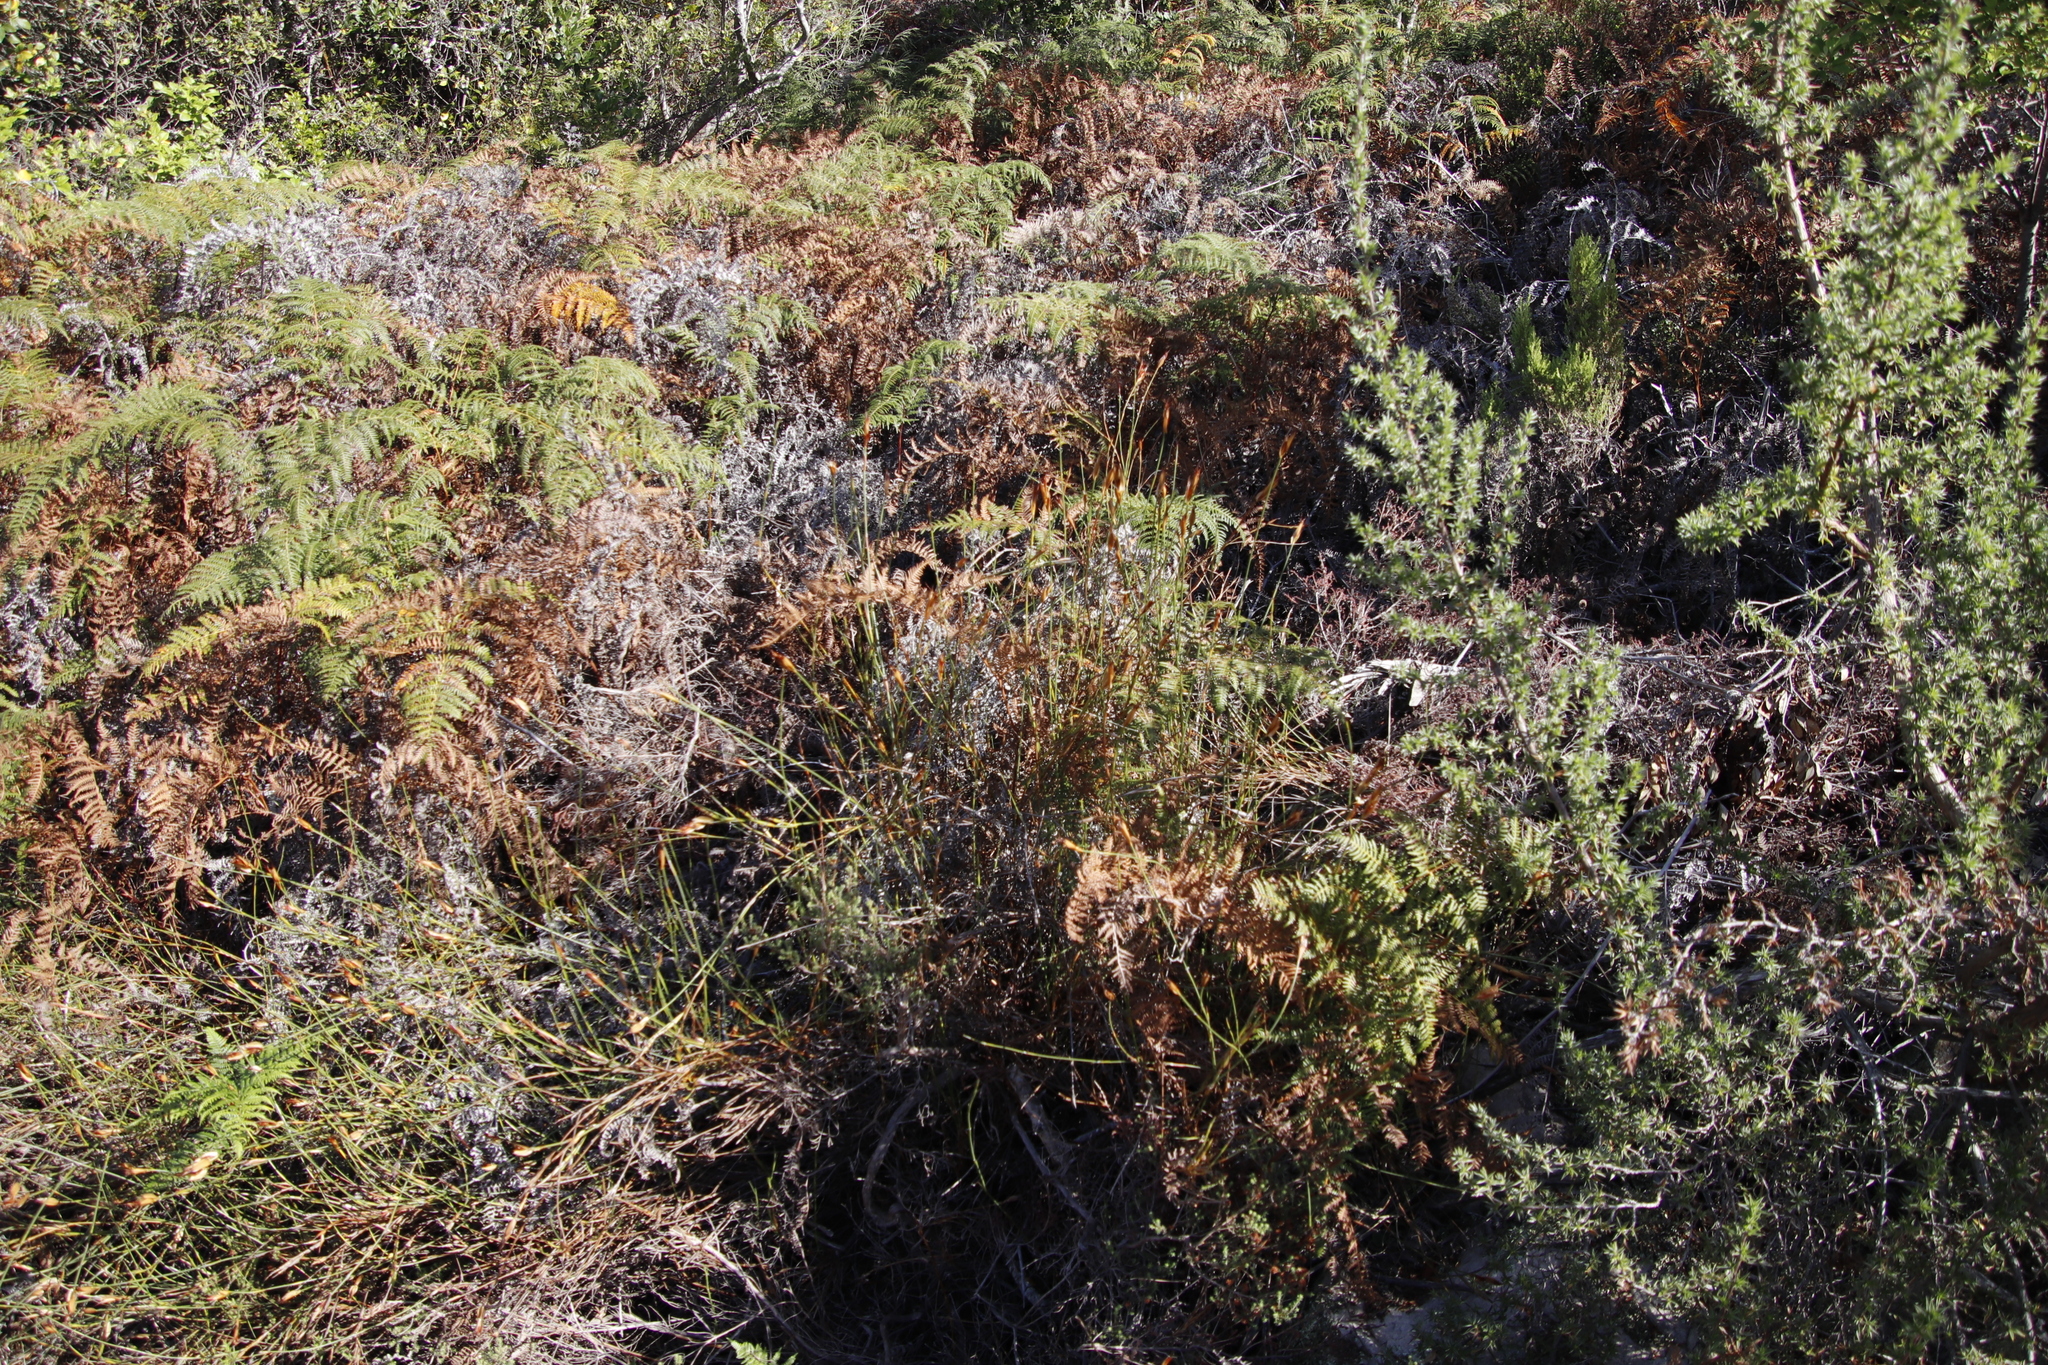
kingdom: Plantae
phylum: Tracheophyta
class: Liliopsida
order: Poales
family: Restionaceae
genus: Willdenowia
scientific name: Willdenowia glomerata
